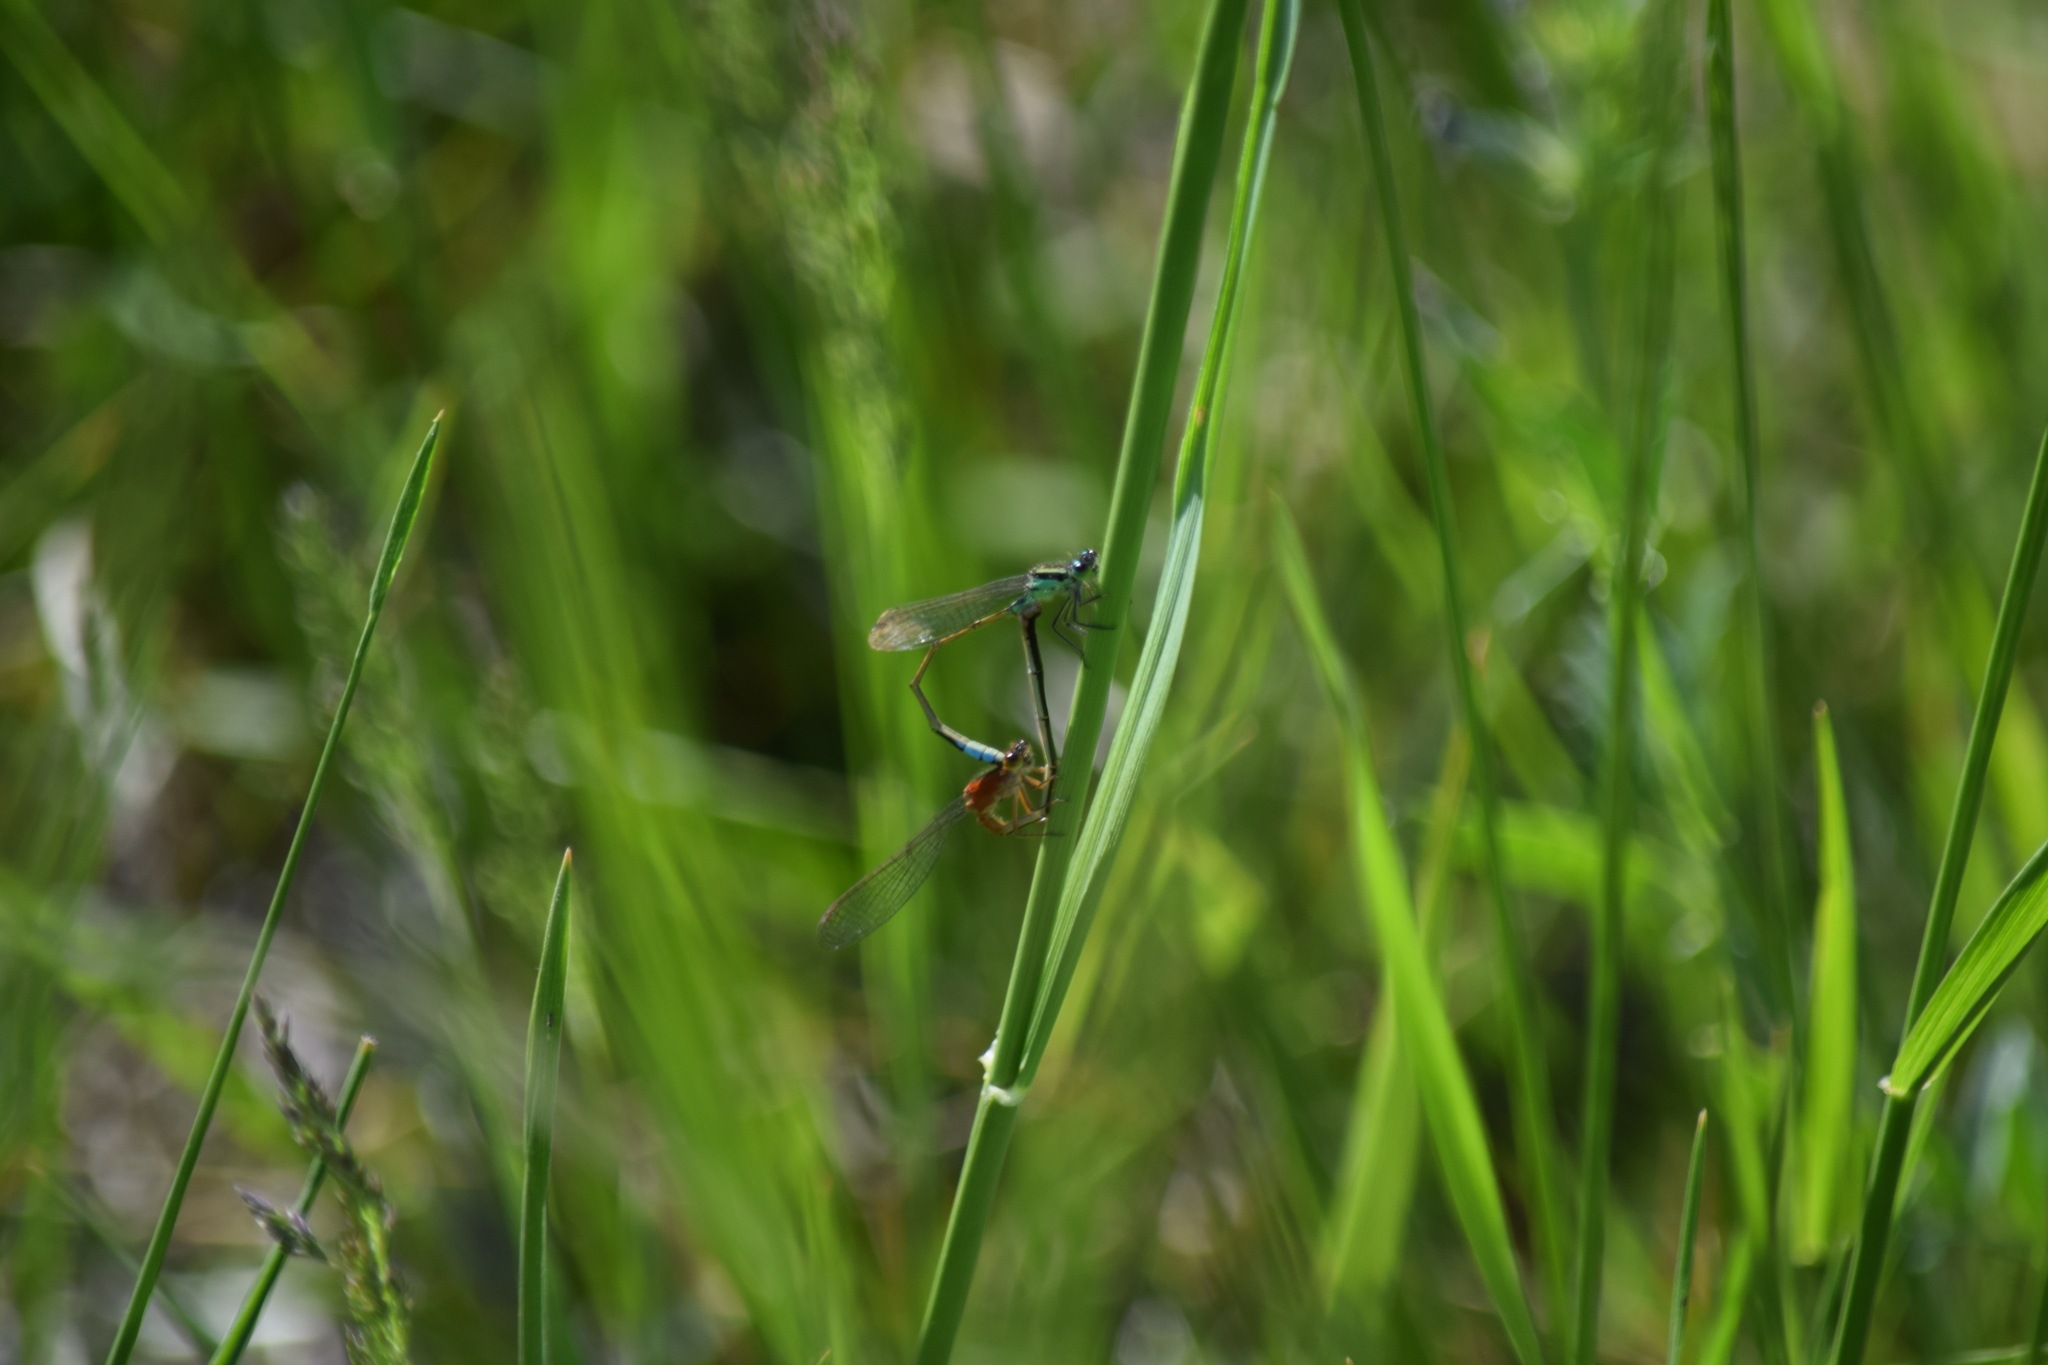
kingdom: Animalia
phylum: Arthropoda
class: Insecta
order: Odonata
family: Coenagrionidae
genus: Ischnura
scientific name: Ischnura ramburii
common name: Rambur's forktail
